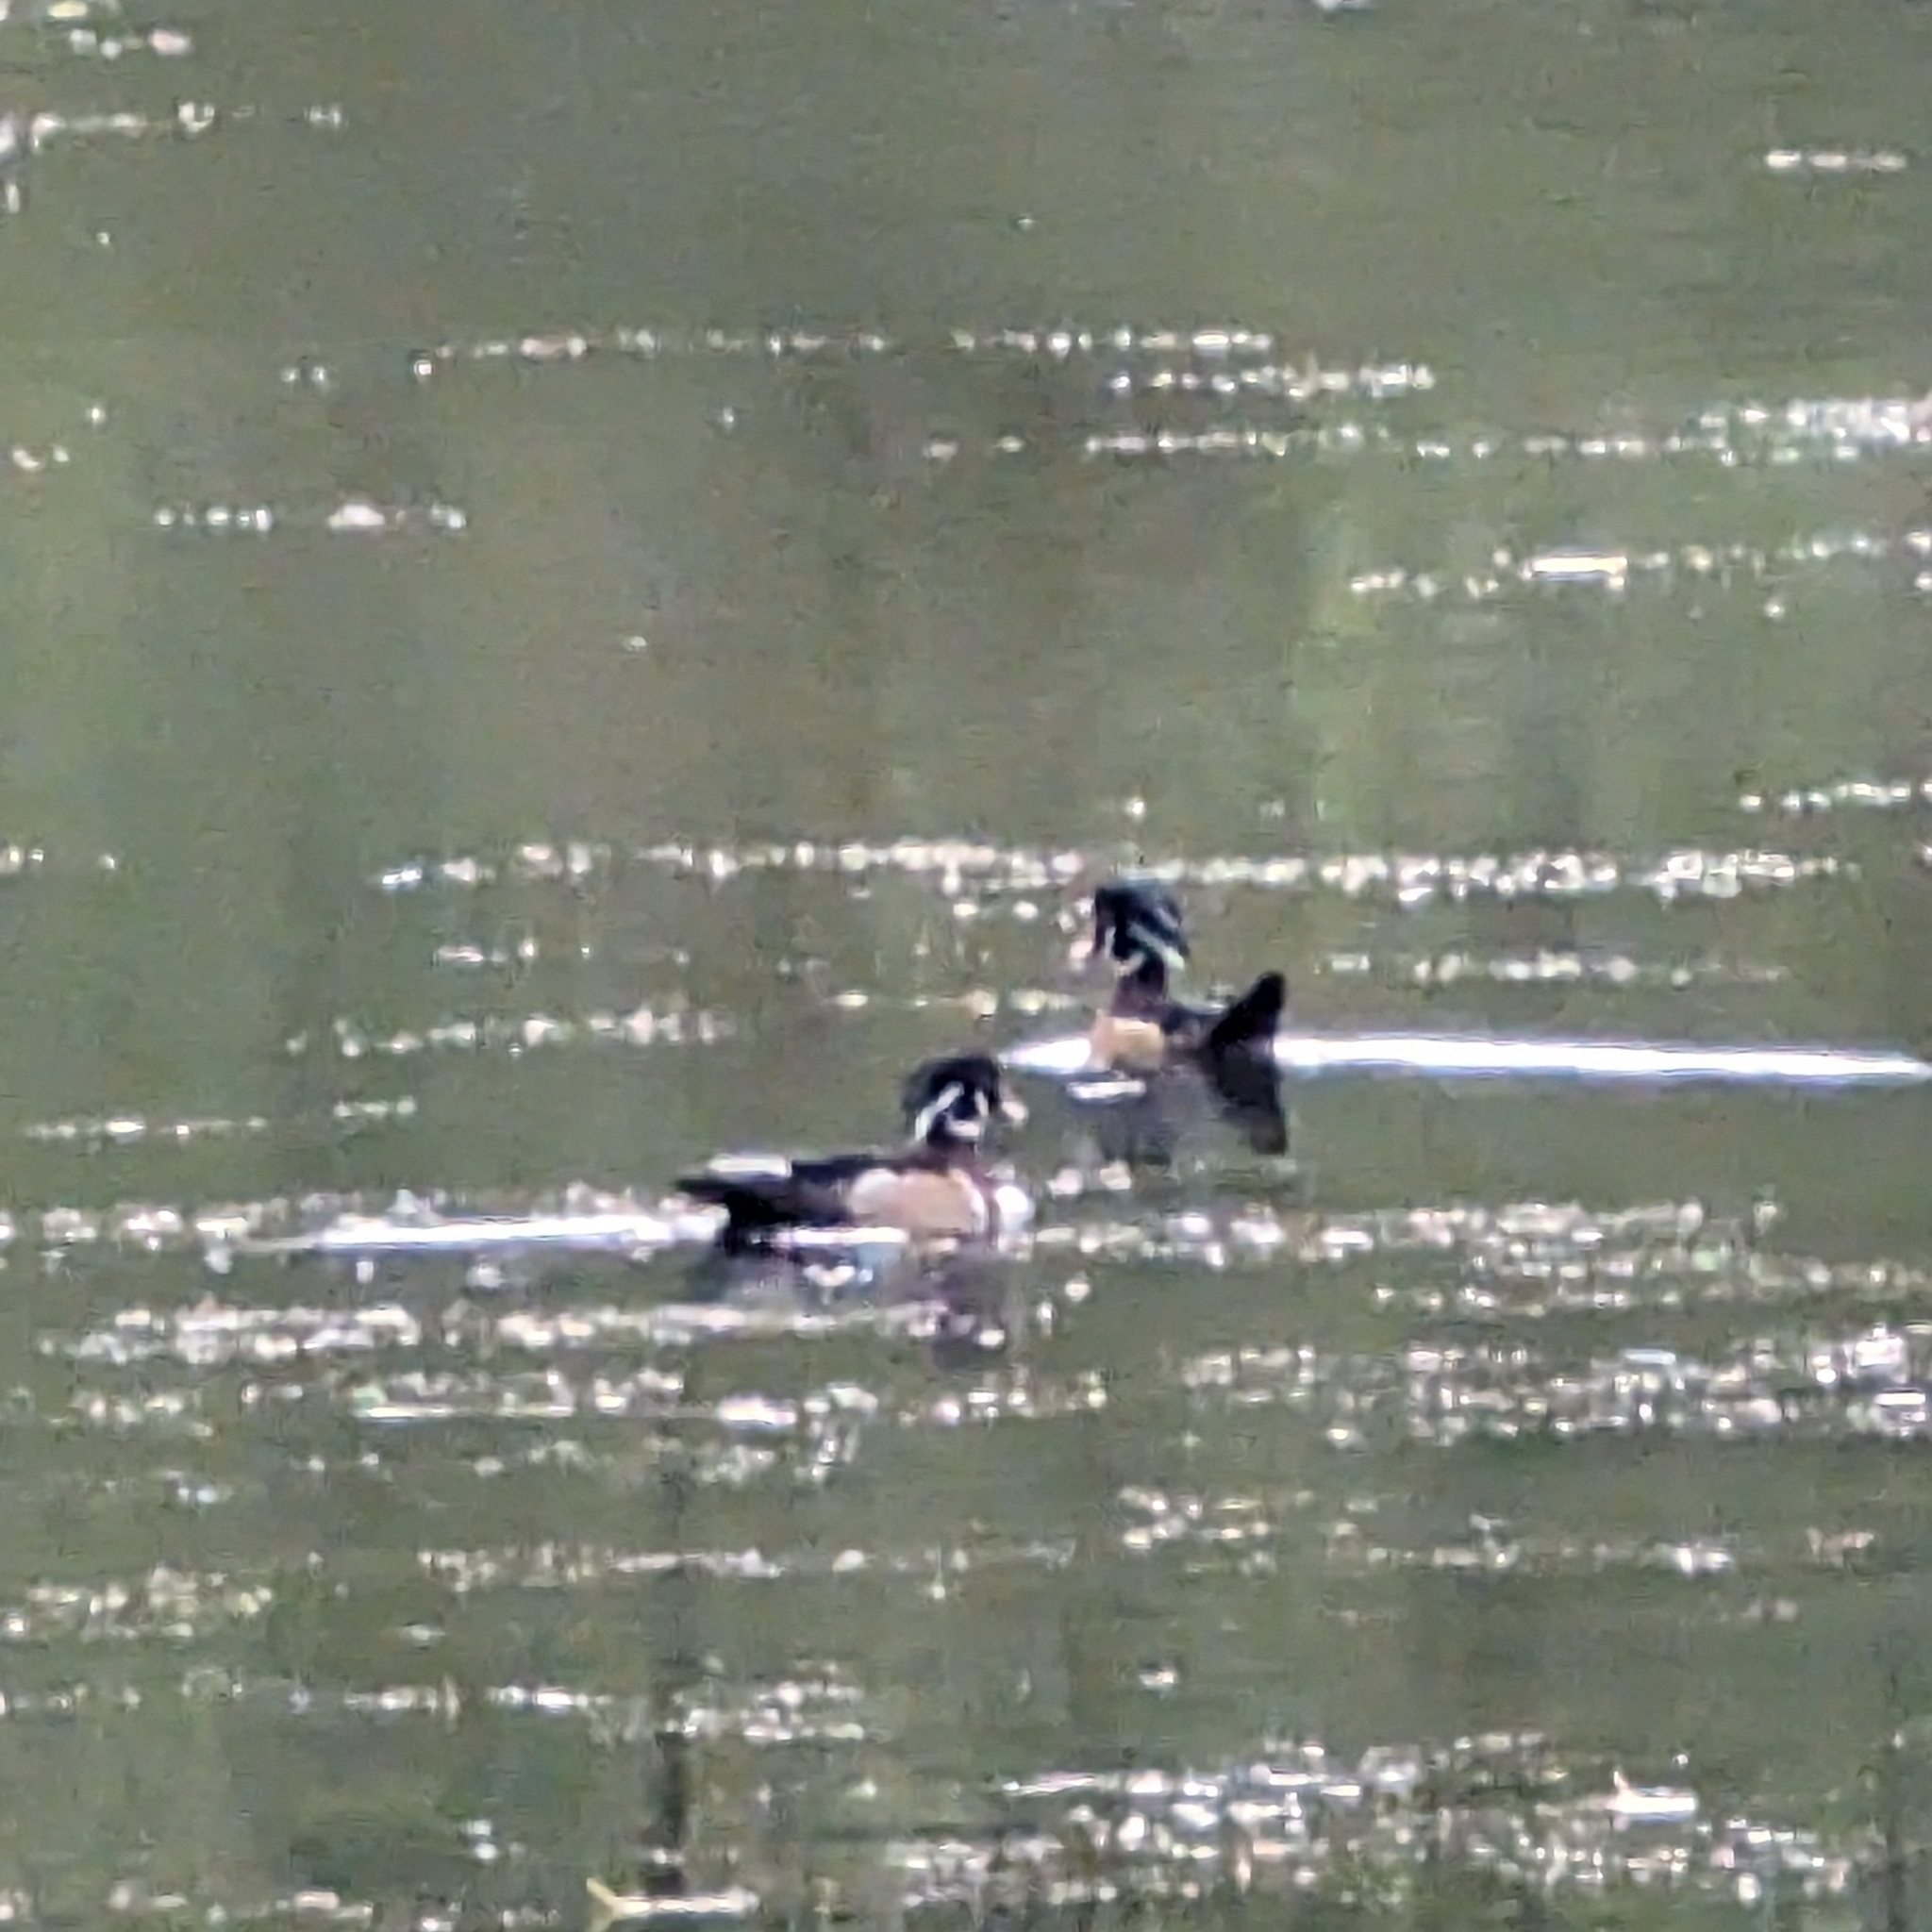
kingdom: Animalia
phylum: Chordata
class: Aves
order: Anseriformes
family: Anatidae
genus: Aix
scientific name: Aix sponsa
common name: Wood duck
